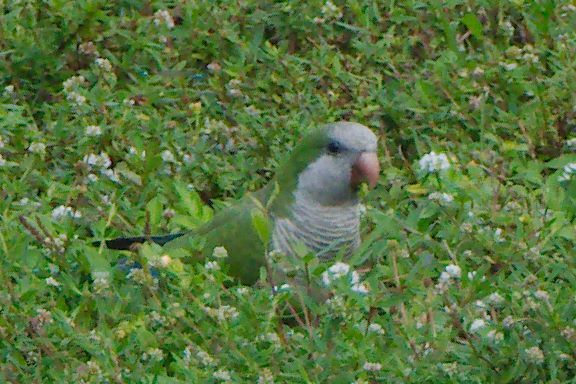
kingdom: Animalia
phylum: Chordata
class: Aves
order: Psittaciformes
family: Psittacidae
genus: Myiopsitta
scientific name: Myiopsitta monachus
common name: Monk parakeet
